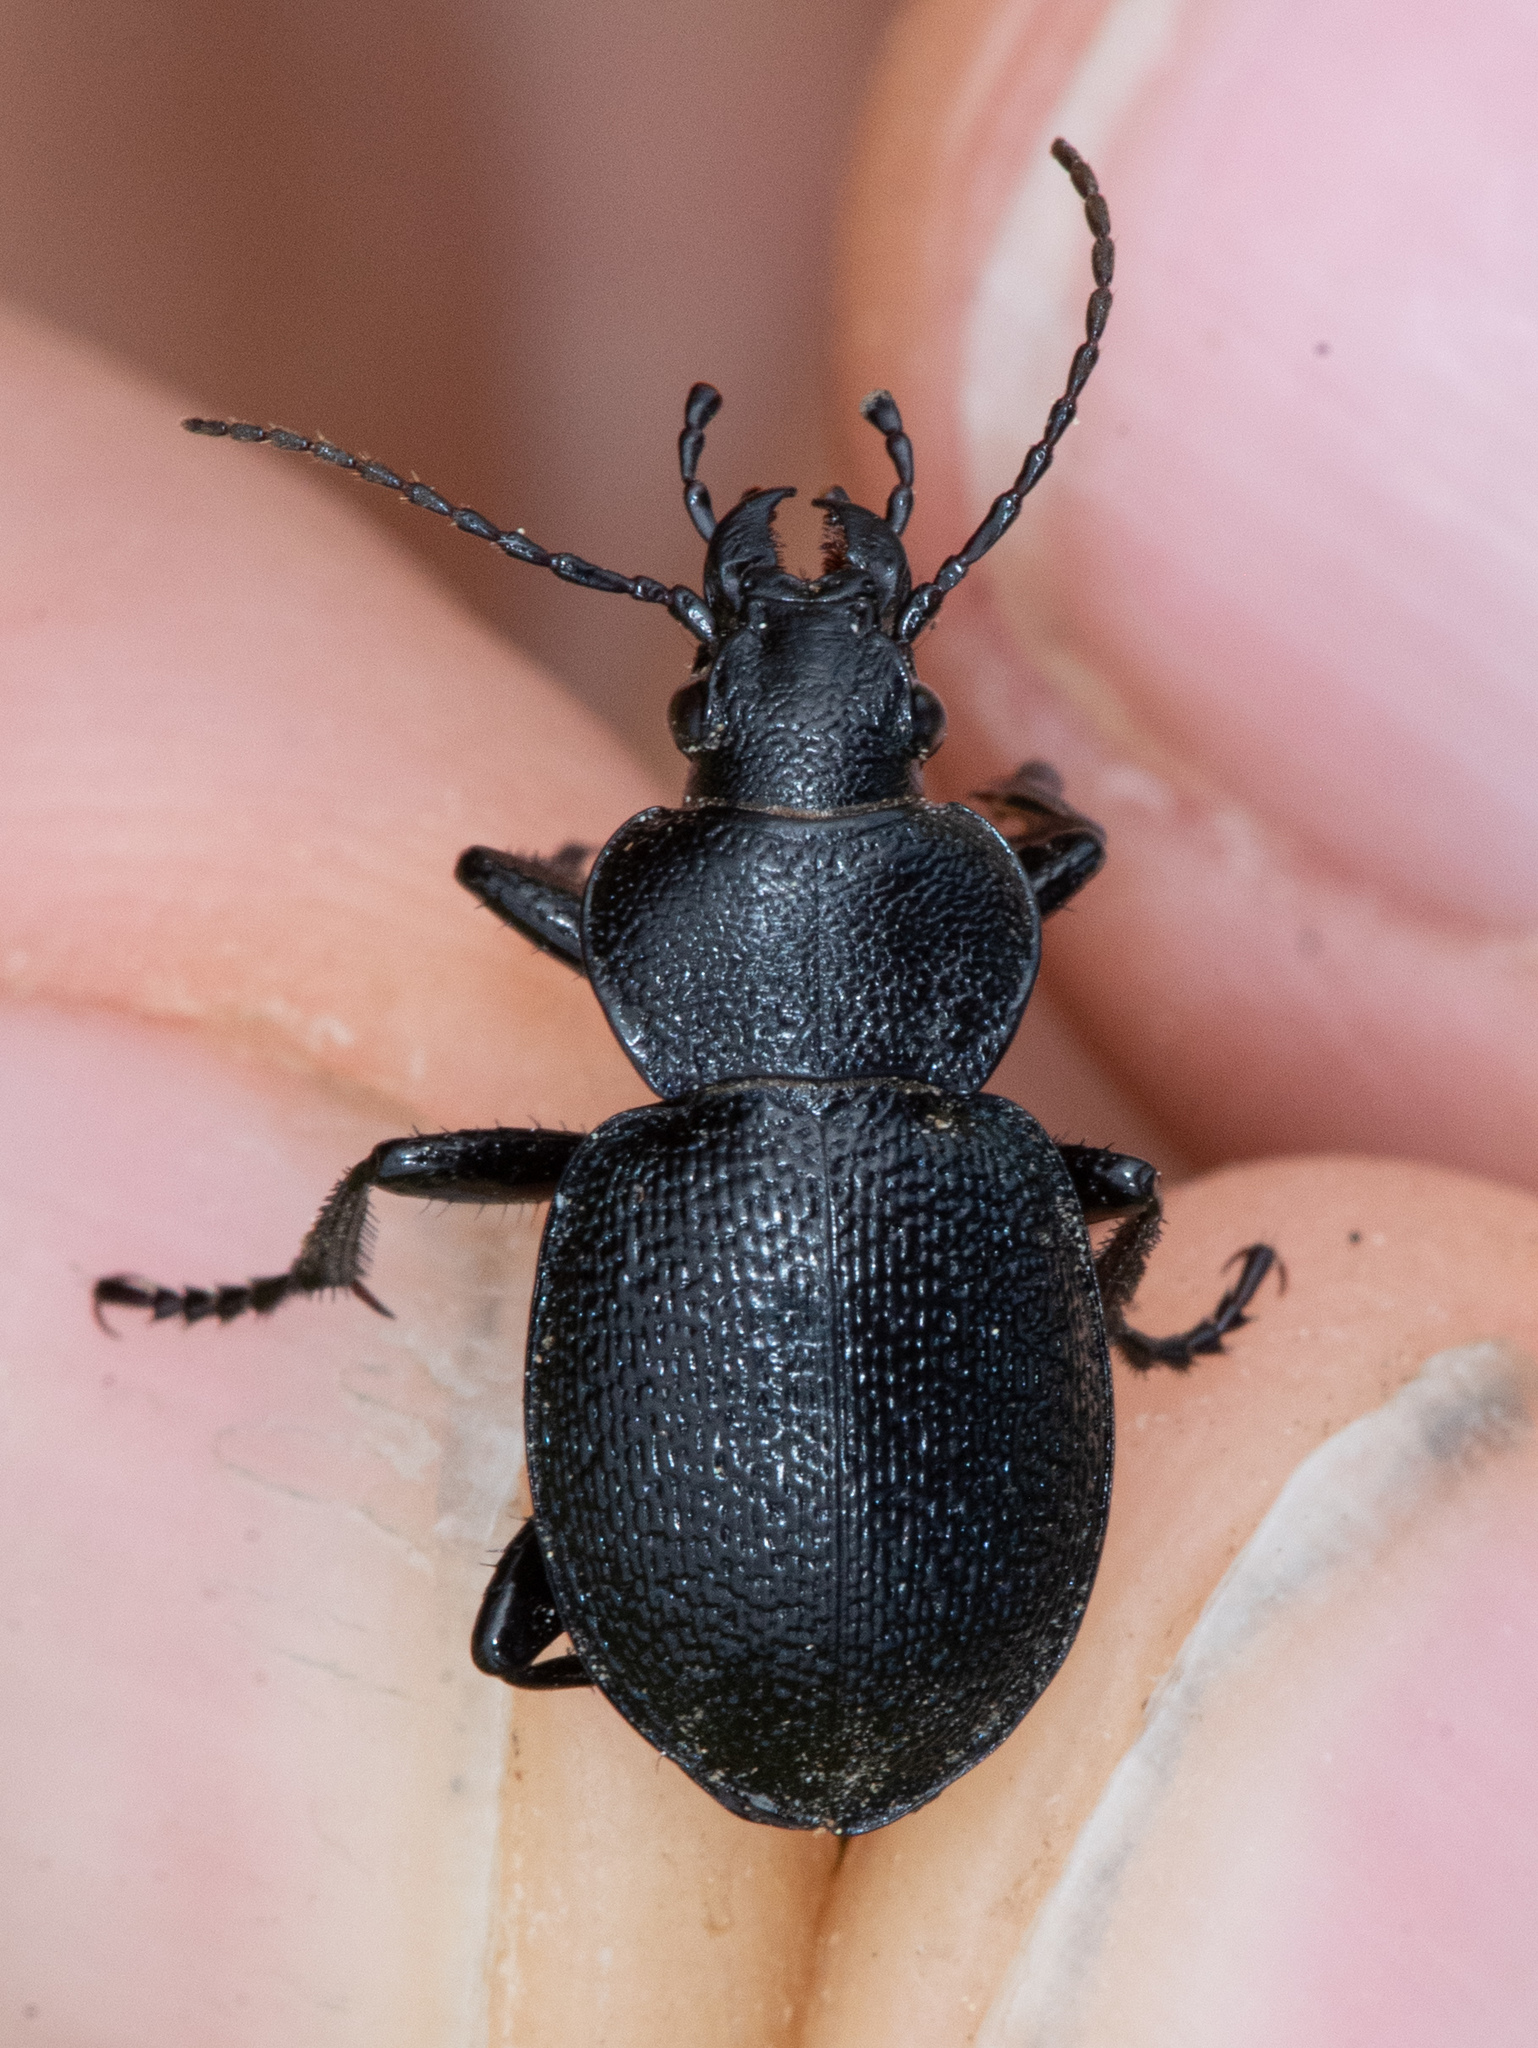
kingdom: Animalia
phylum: Arthropoda
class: Insecta
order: Coleoptera
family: Carabidae
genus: Calosoma
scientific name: Calosoma
